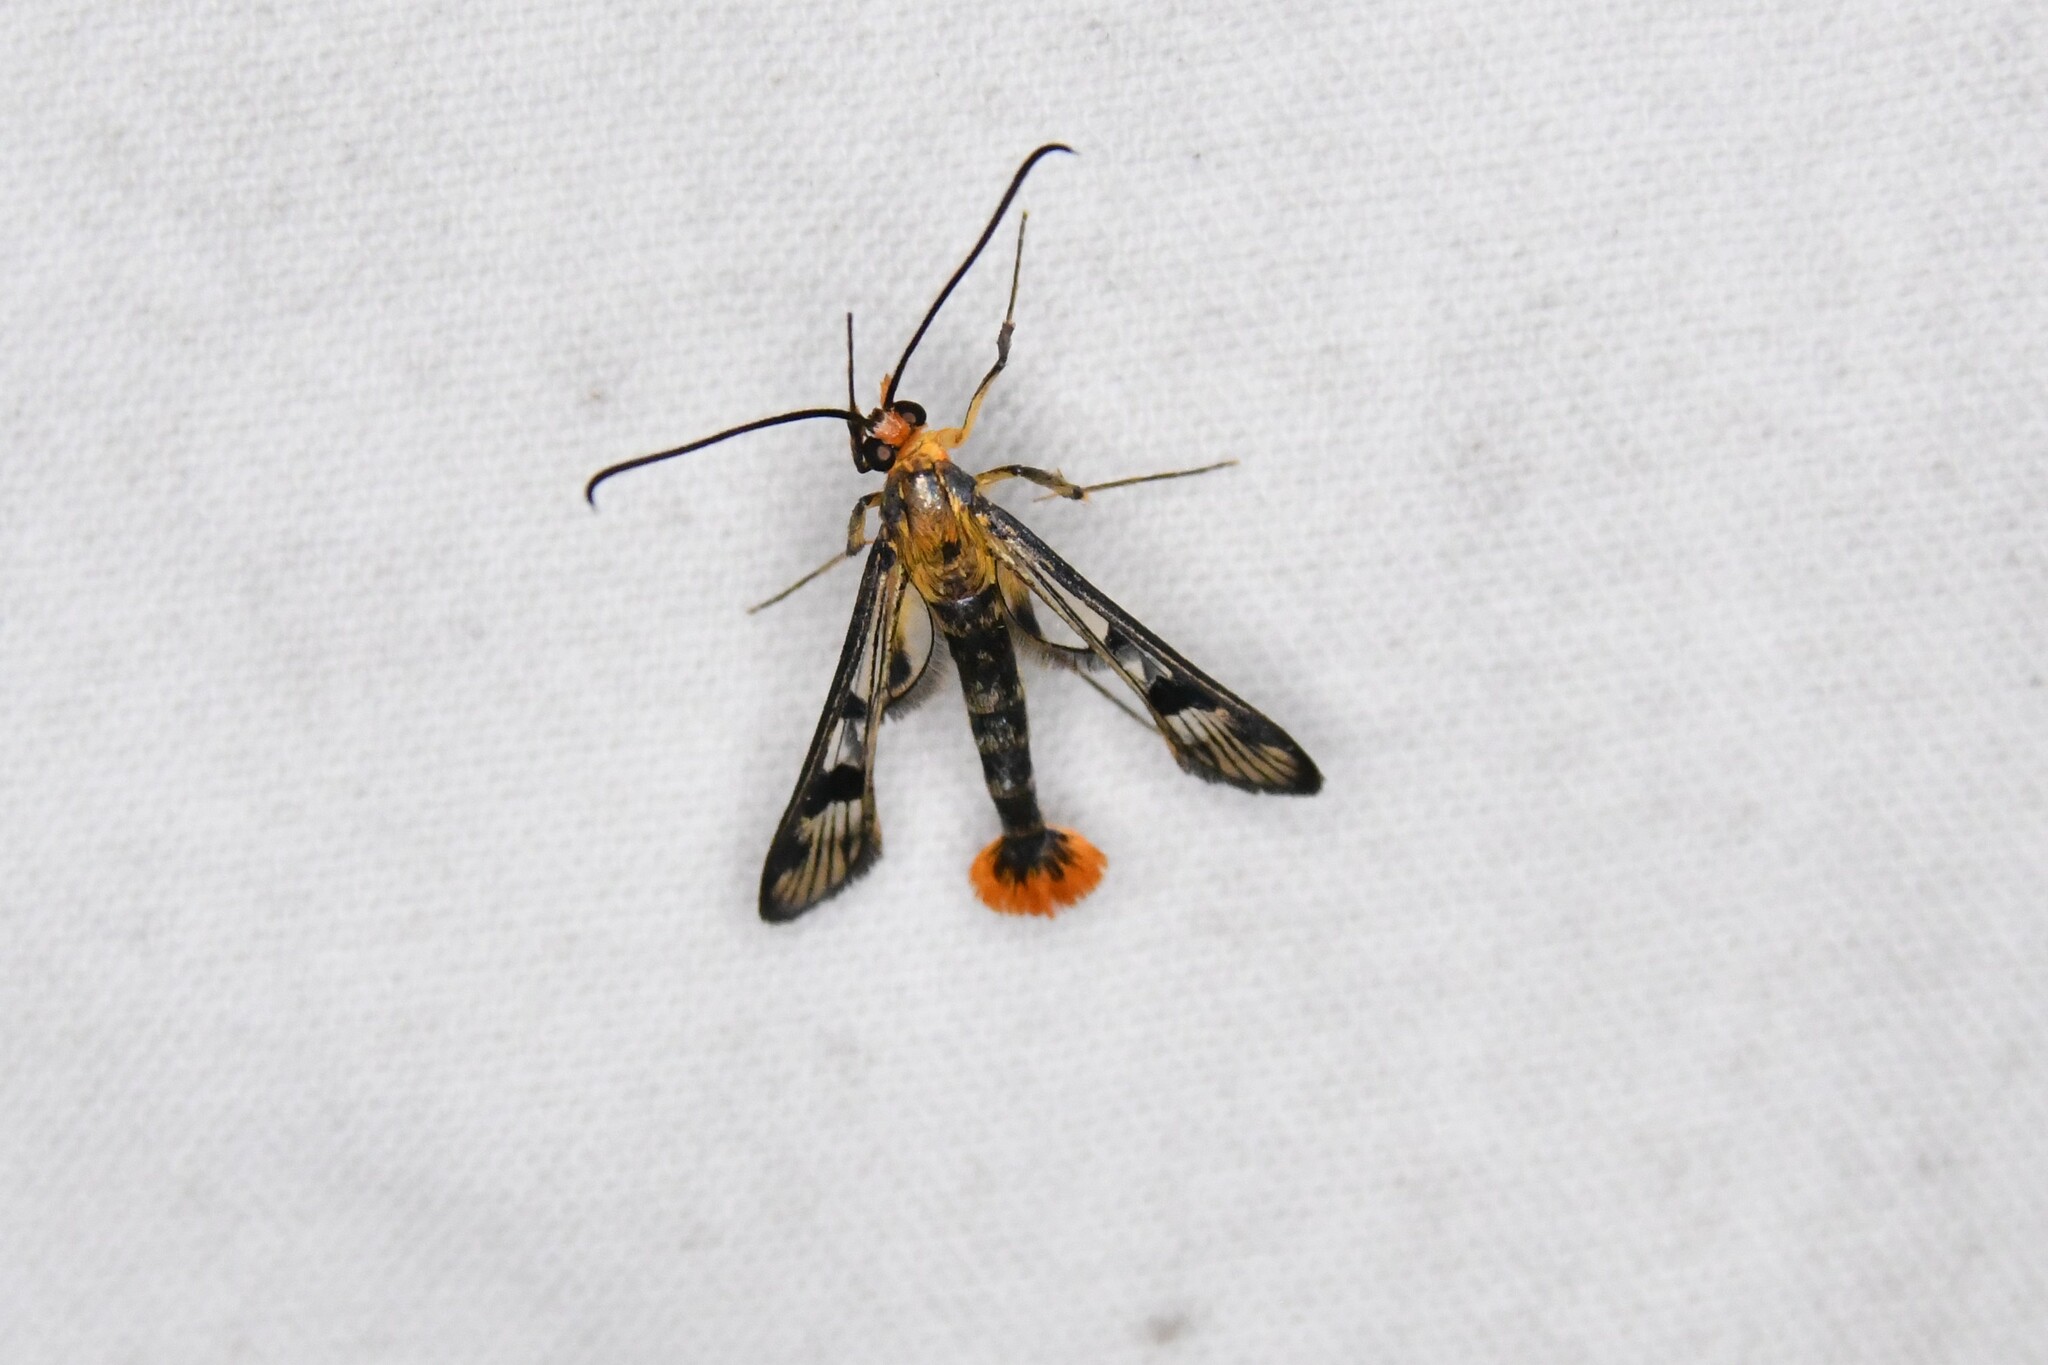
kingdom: Animalia
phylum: Arthropoda
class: Insecta
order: Lepidoptera
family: Sesiidae
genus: Synanthedon
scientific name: Synanthedon acerni
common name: Maple callus borer moth
